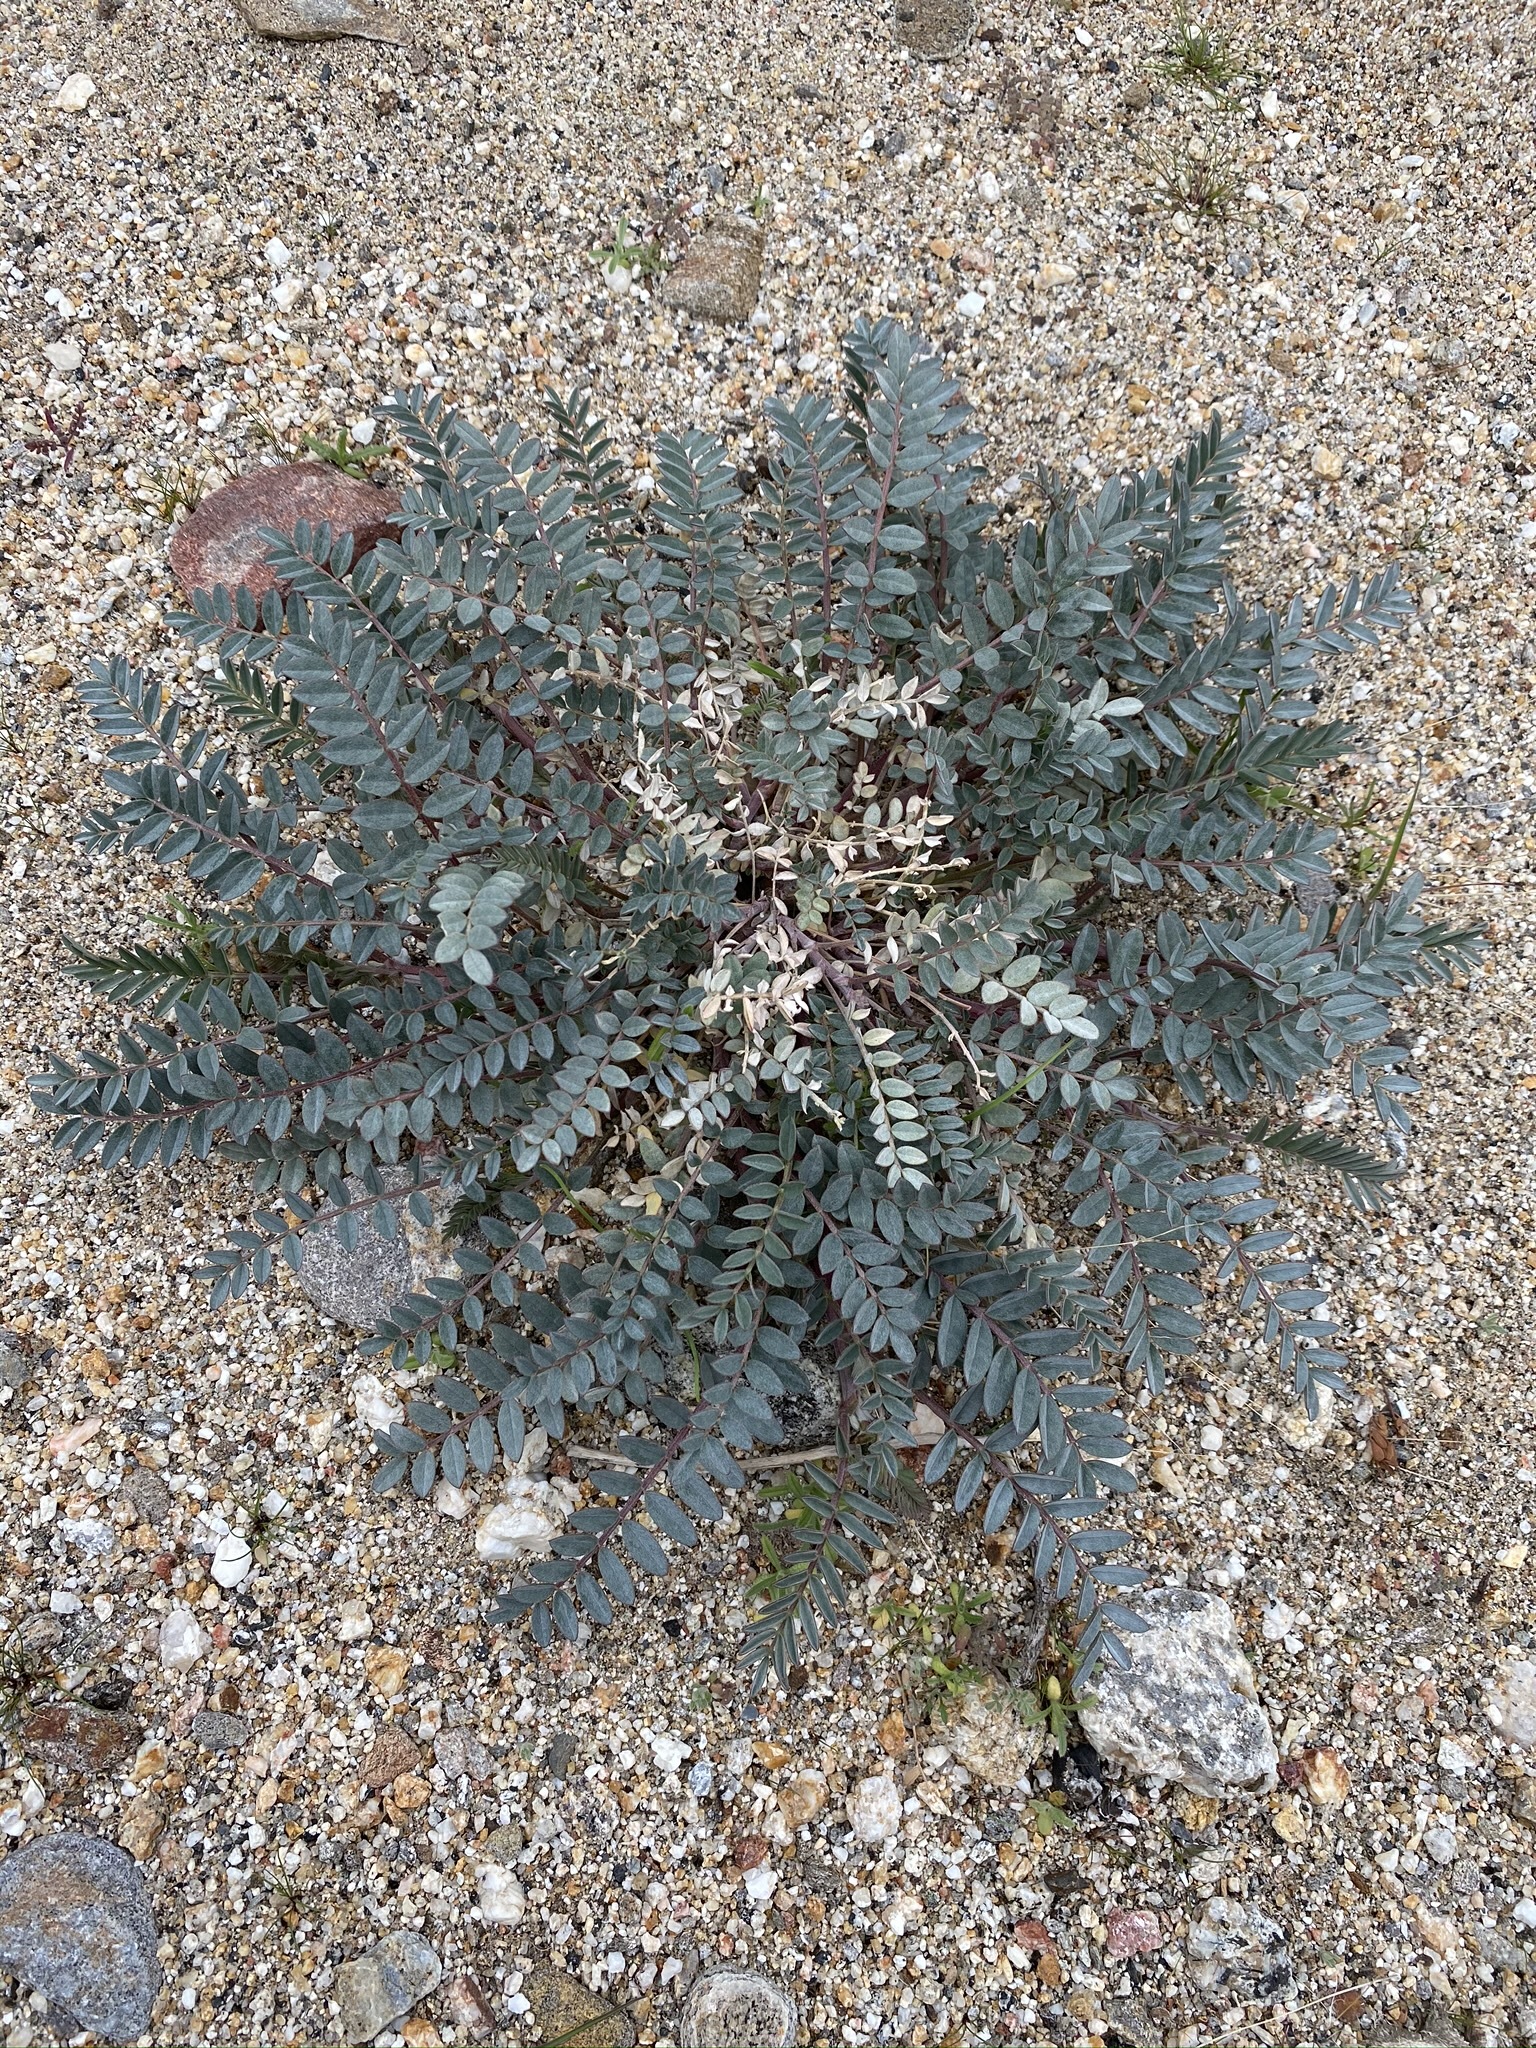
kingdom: Plantae
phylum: Tracheophyta
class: Magnoliopsida
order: Fabales
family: Fabaceae
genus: Astragalus
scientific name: Astragalus palmeri
